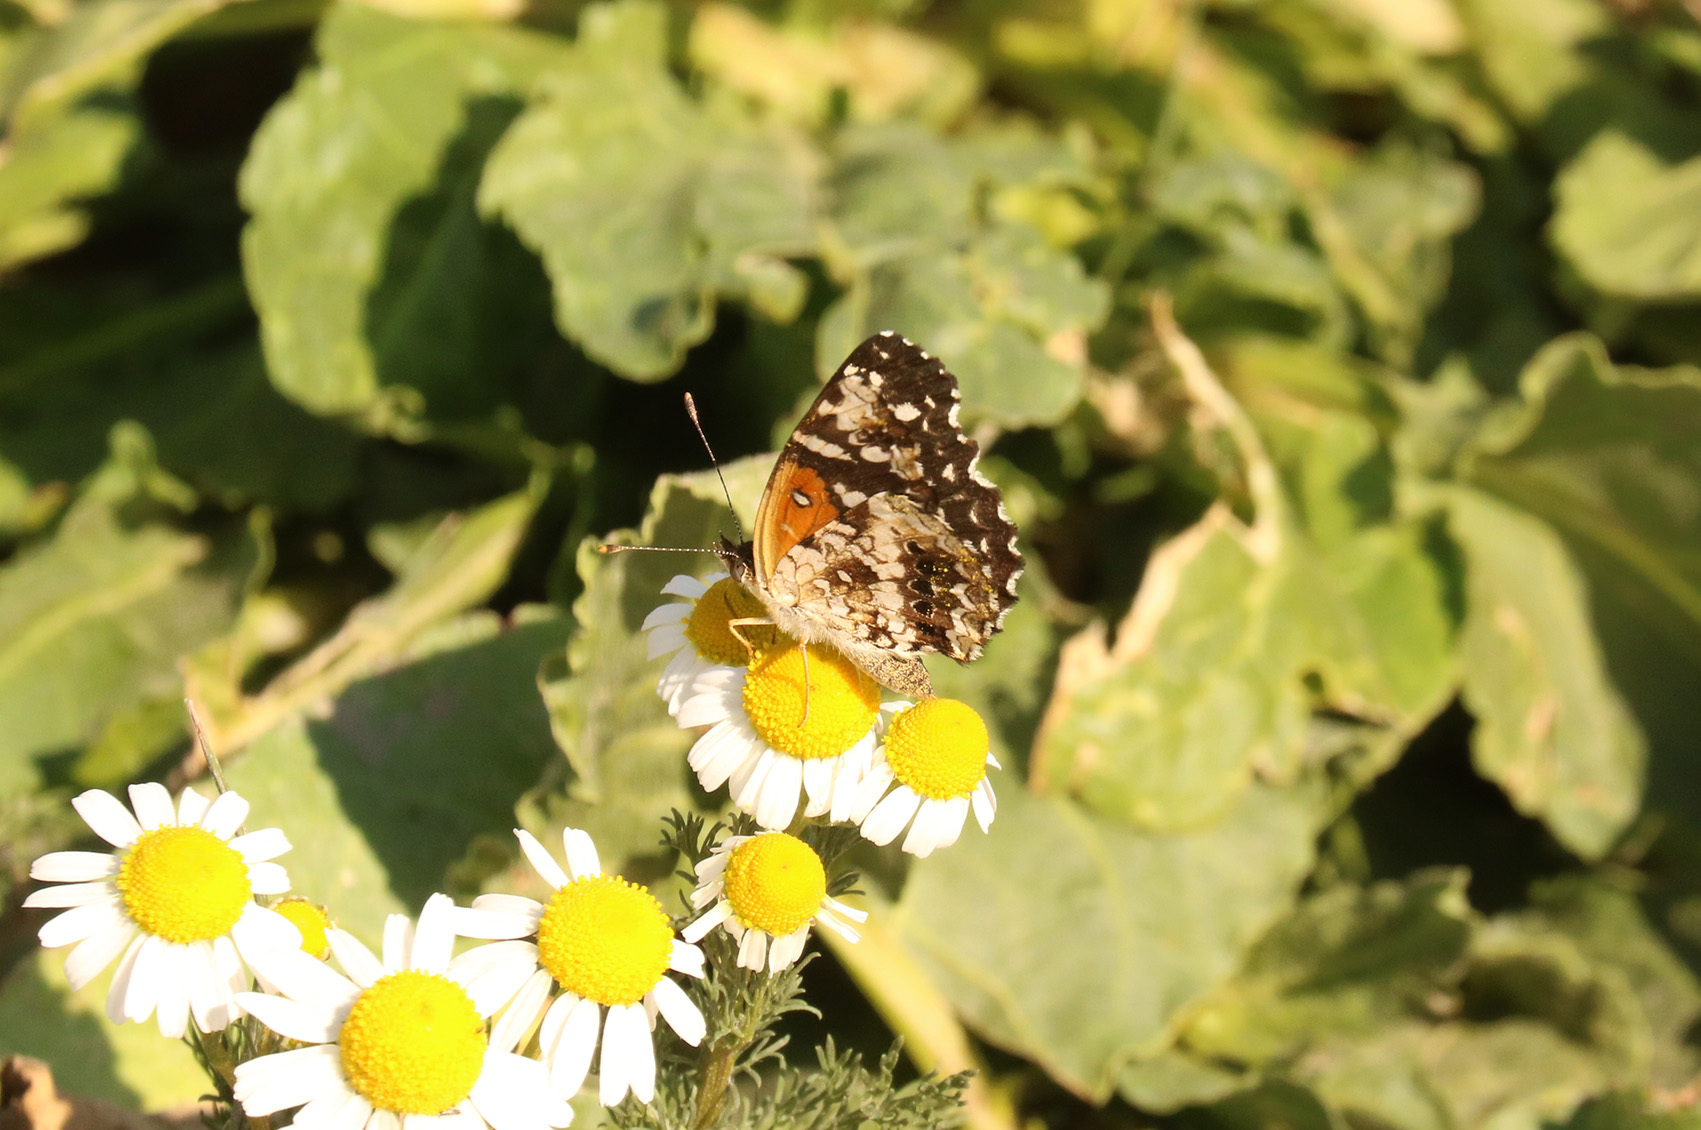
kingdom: Animalia
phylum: Arthropoda
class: Insecta
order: Lepidoptera
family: Nymphalidae
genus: Ortilia
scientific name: Ortilia ithra
